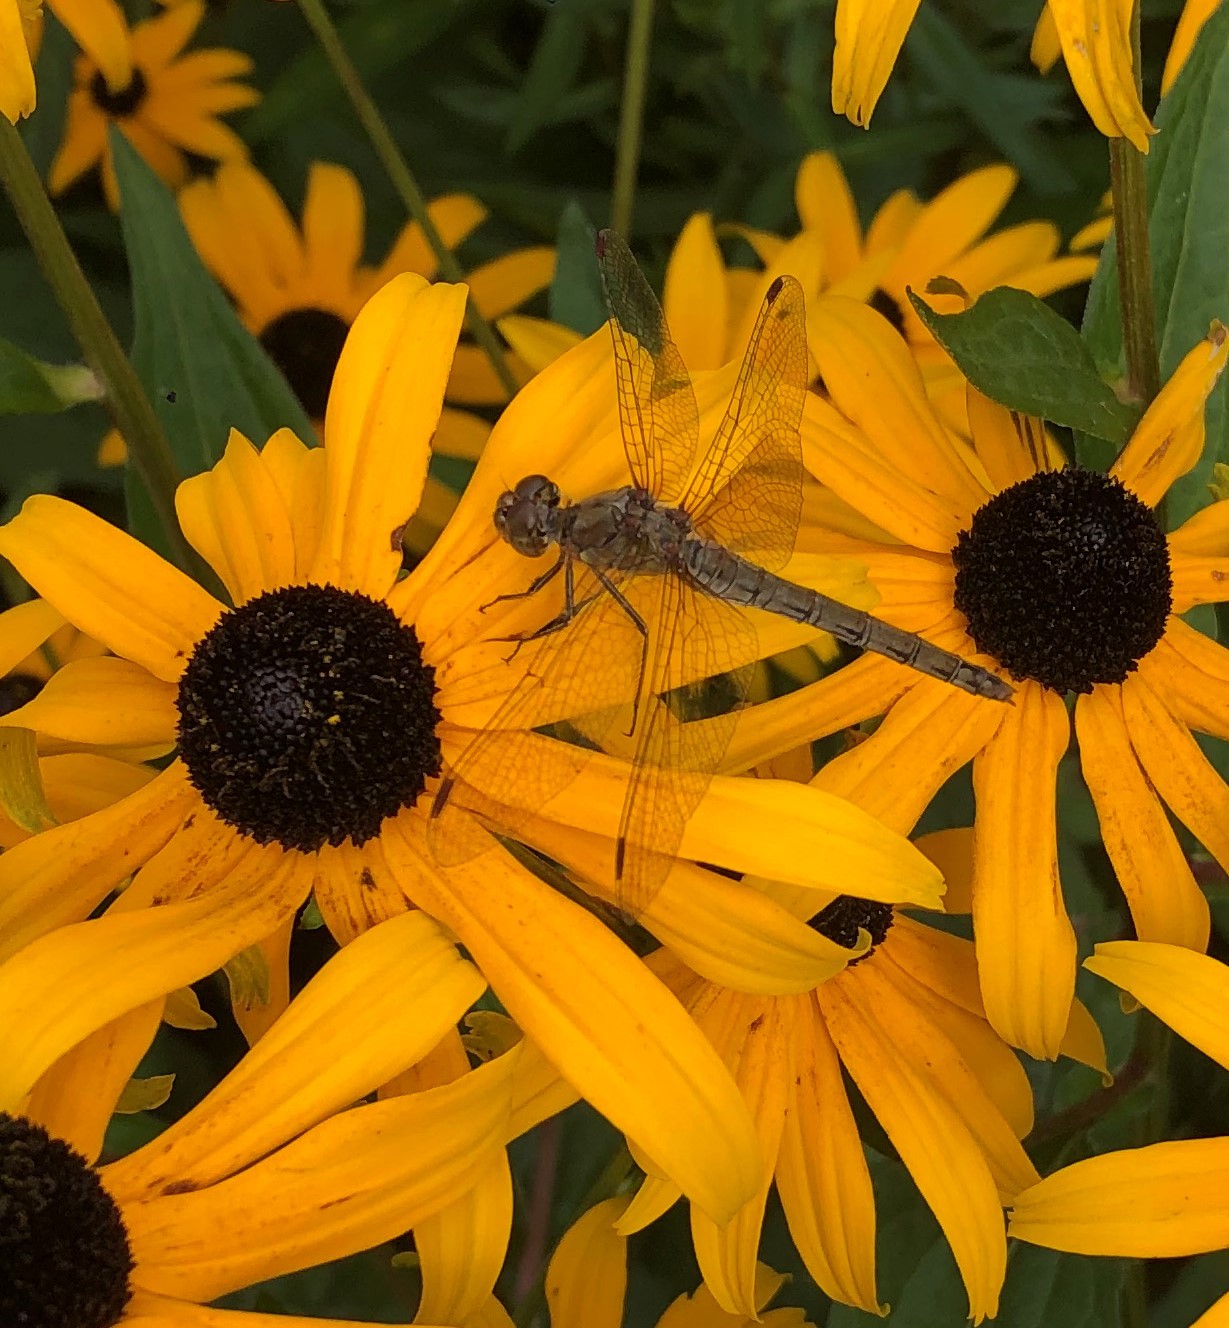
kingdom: Animalia
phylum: Arthropoda
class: Insecta
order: Odonata
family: Libellulidae
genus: Sympetrum
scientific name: Sympetrum striolatum
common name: Common darter
